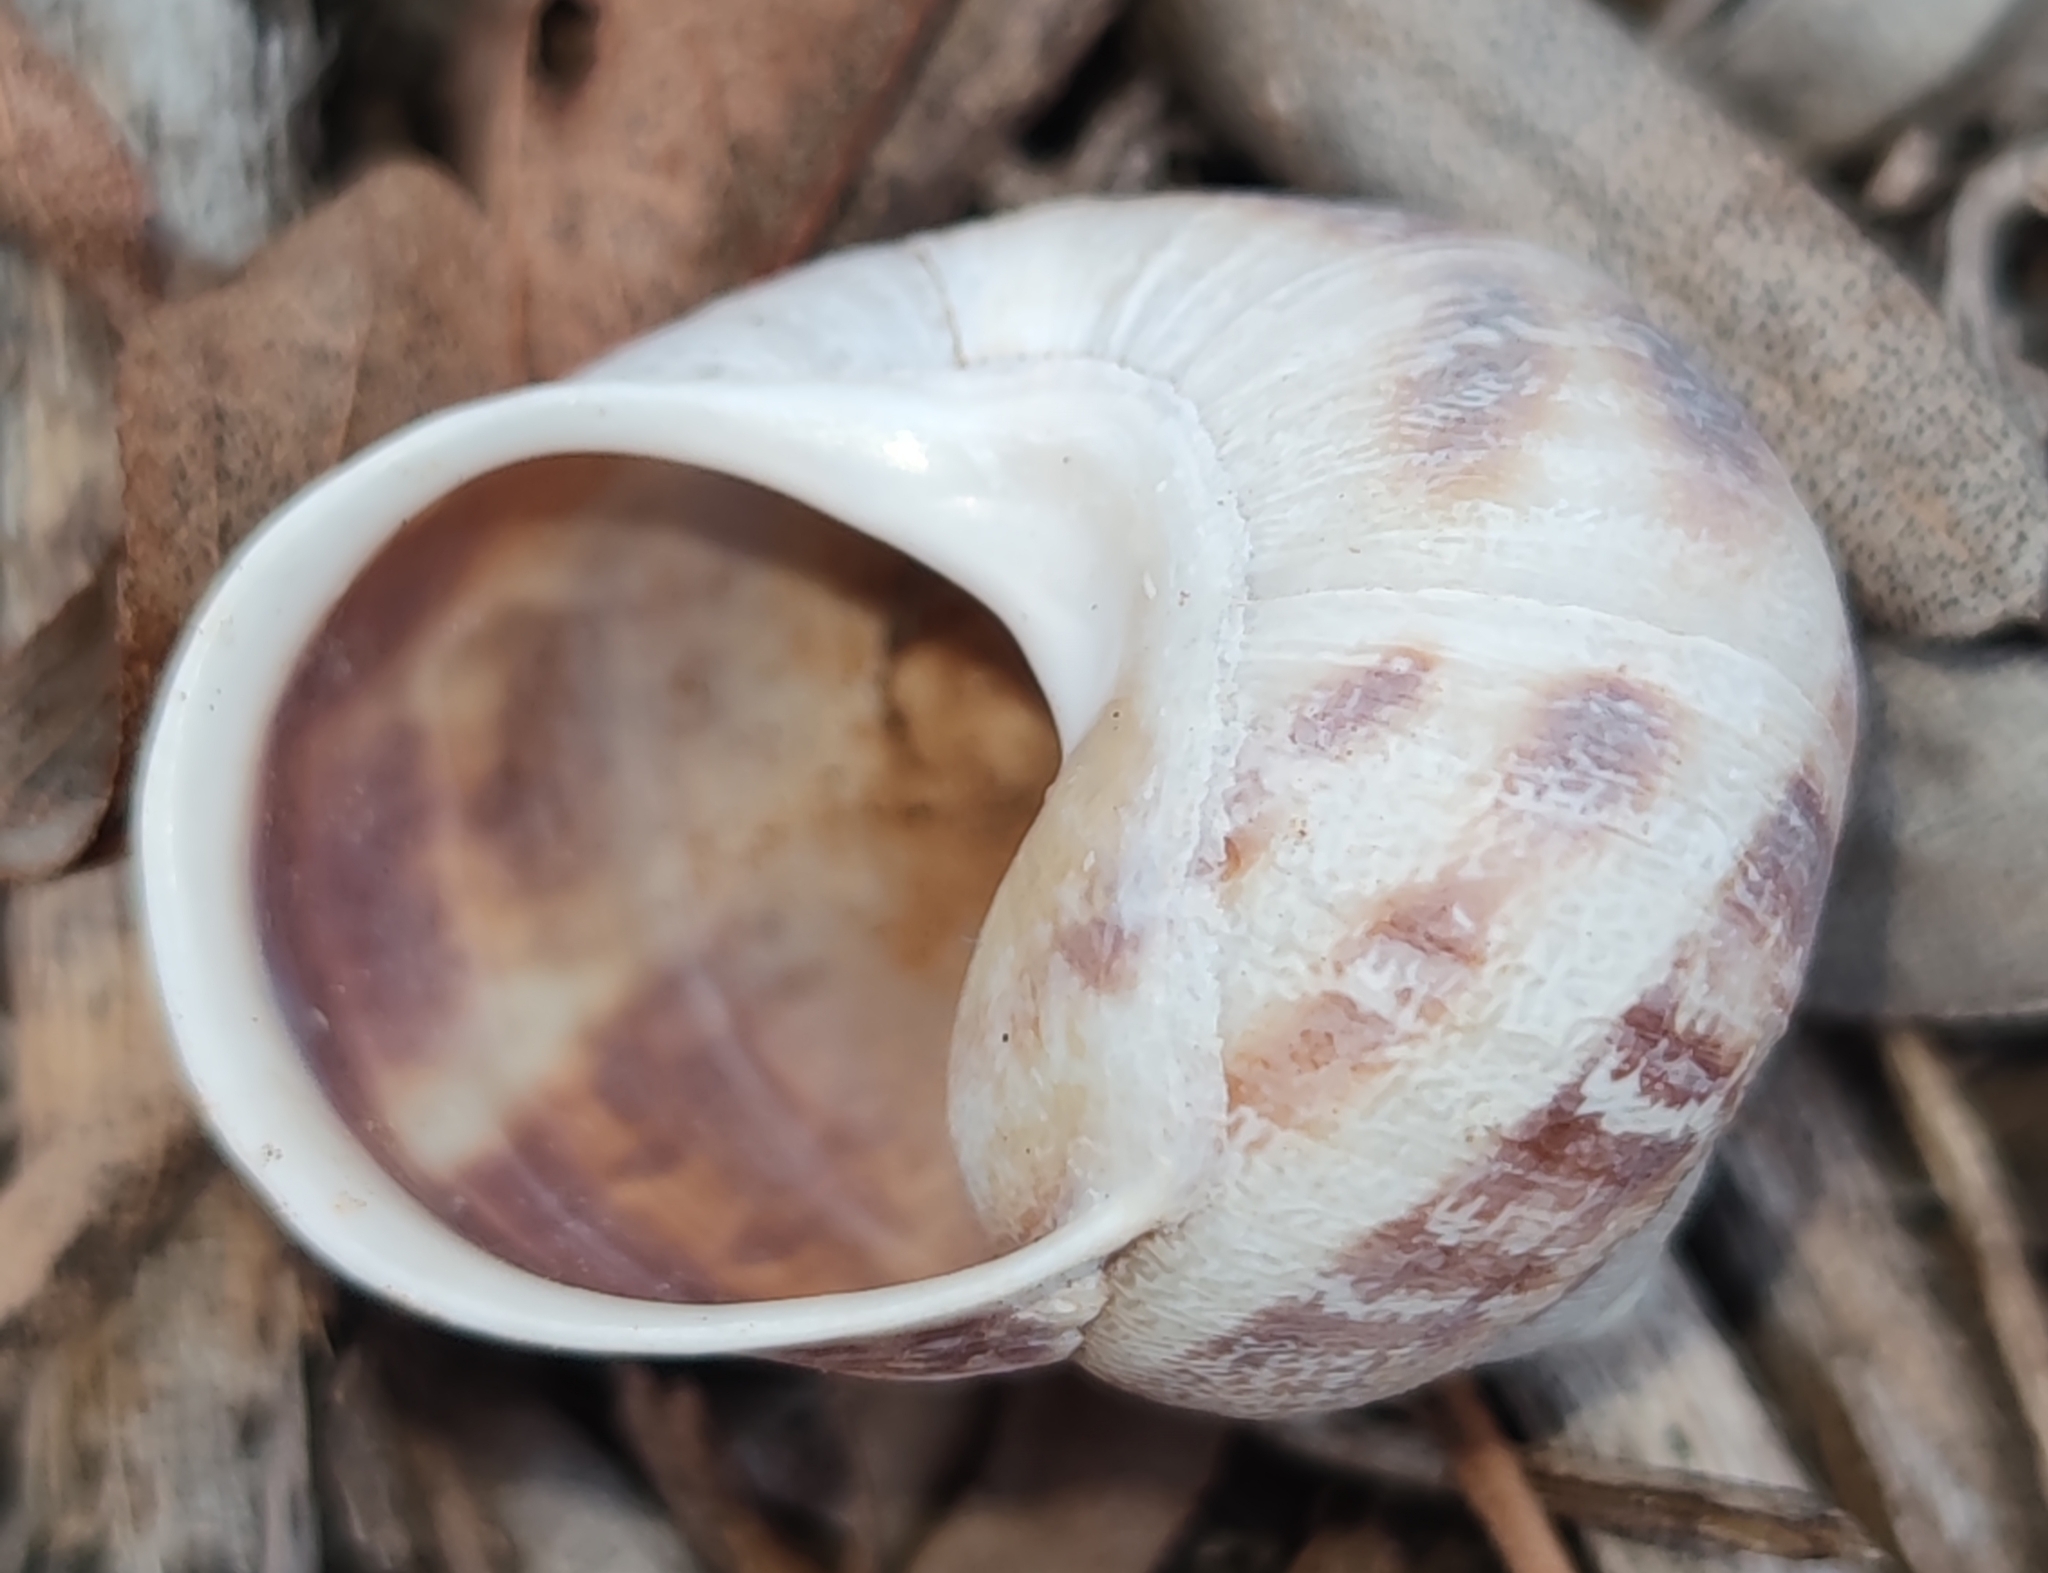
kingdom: Animalia
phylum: Mollusca
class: Gastropoda
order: Stylommatophora
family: Helicidae
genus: Cornu
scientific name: Cornu aspersum
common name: Brown garden snail
